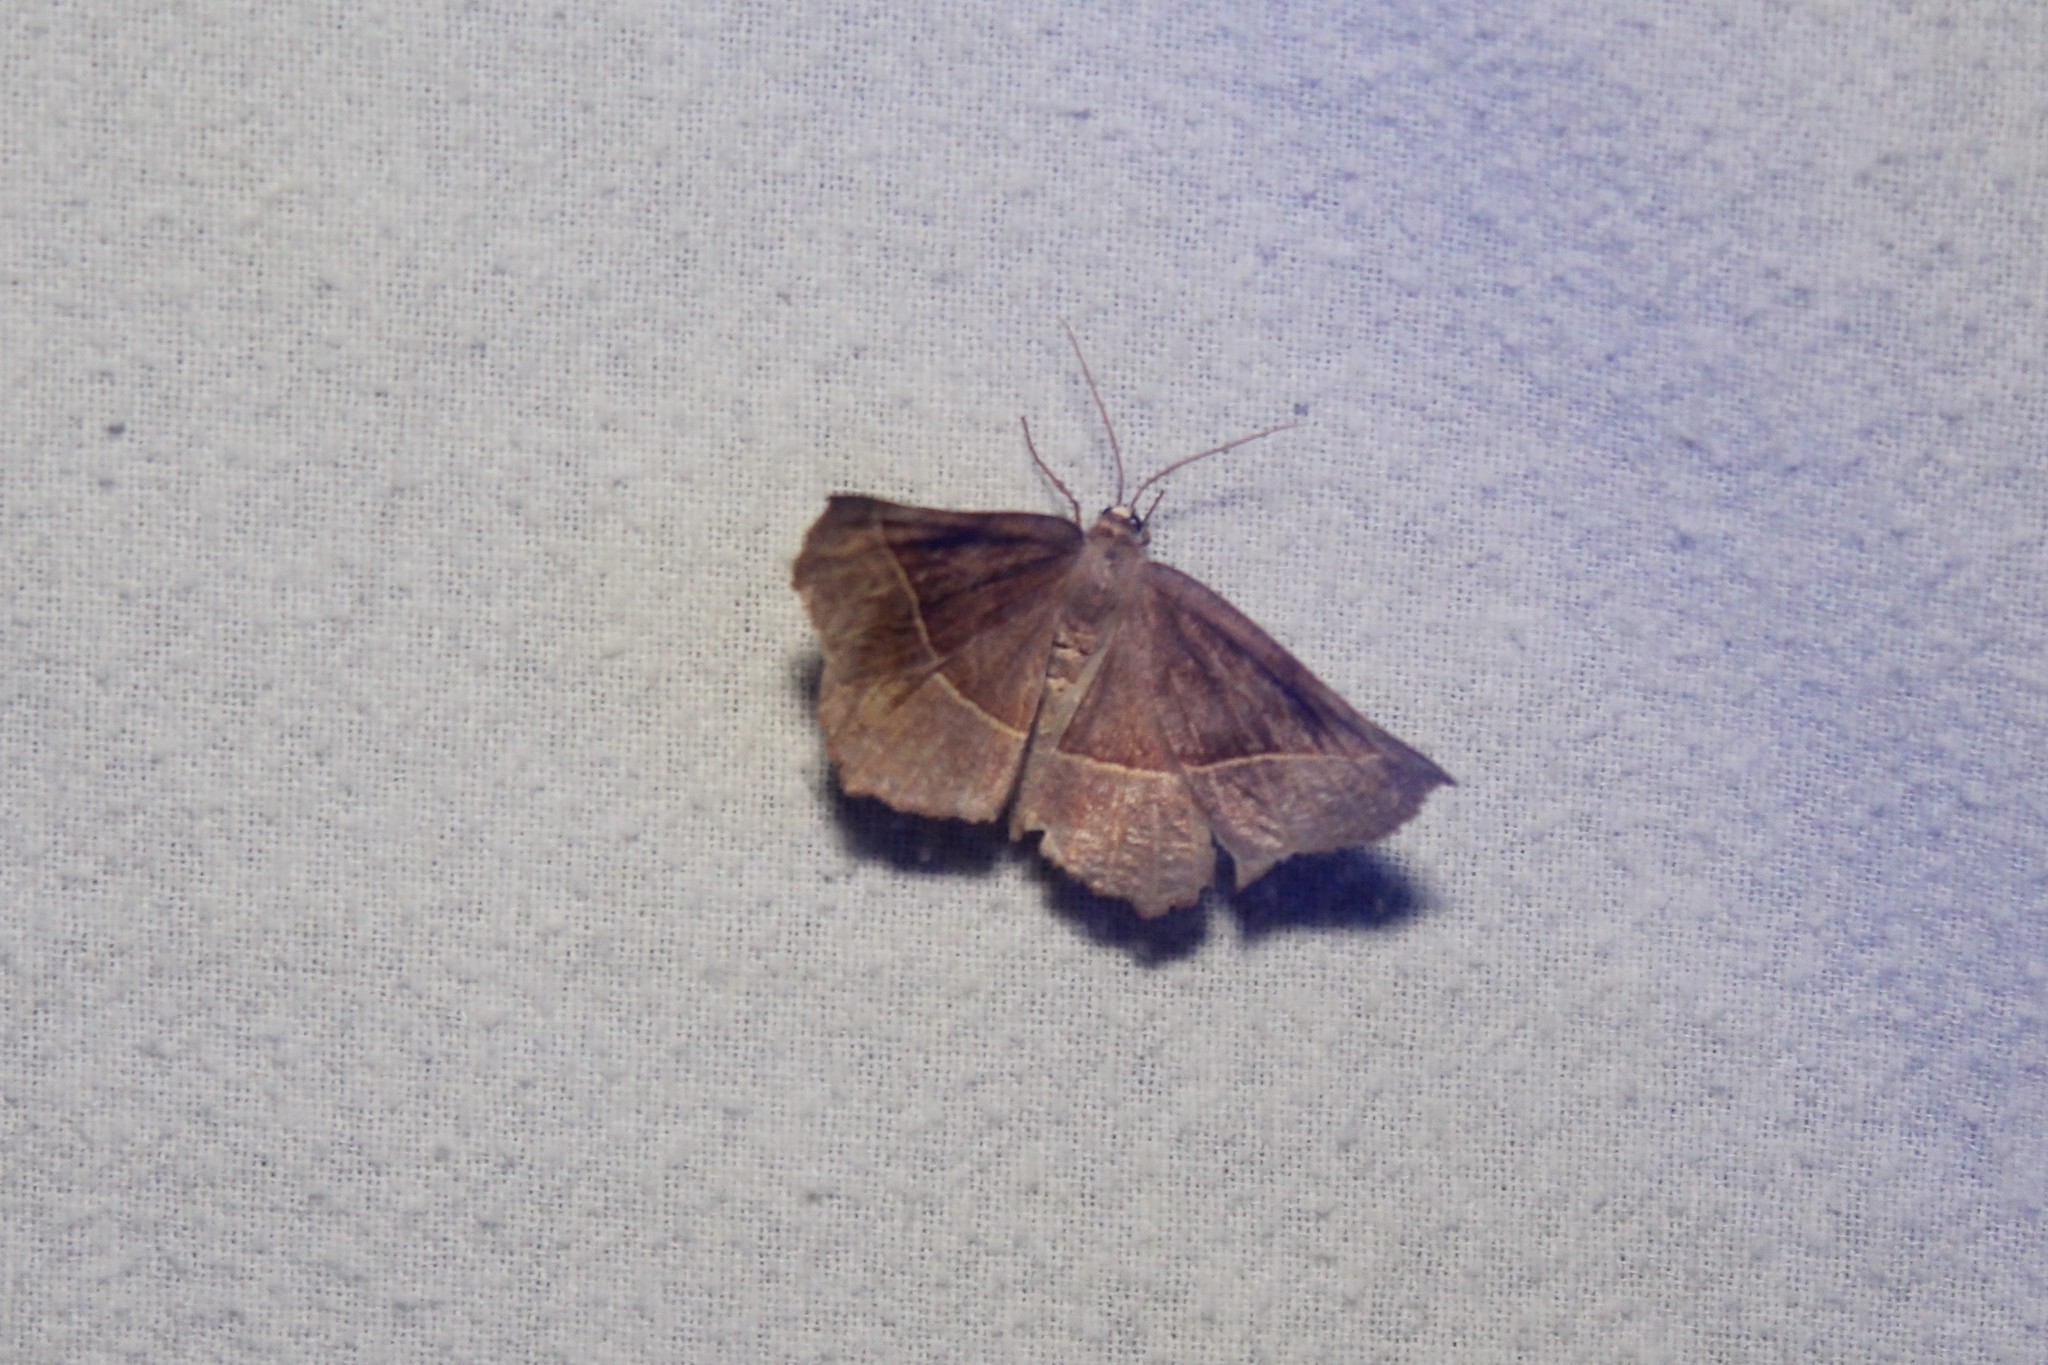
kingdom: Animalia
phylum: Arthropoda
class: Insecta
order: Lepidoptera
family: Geometridae
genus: Eutrapela
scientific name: Eutrapela clemataria
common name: Curved-toothed geometer
